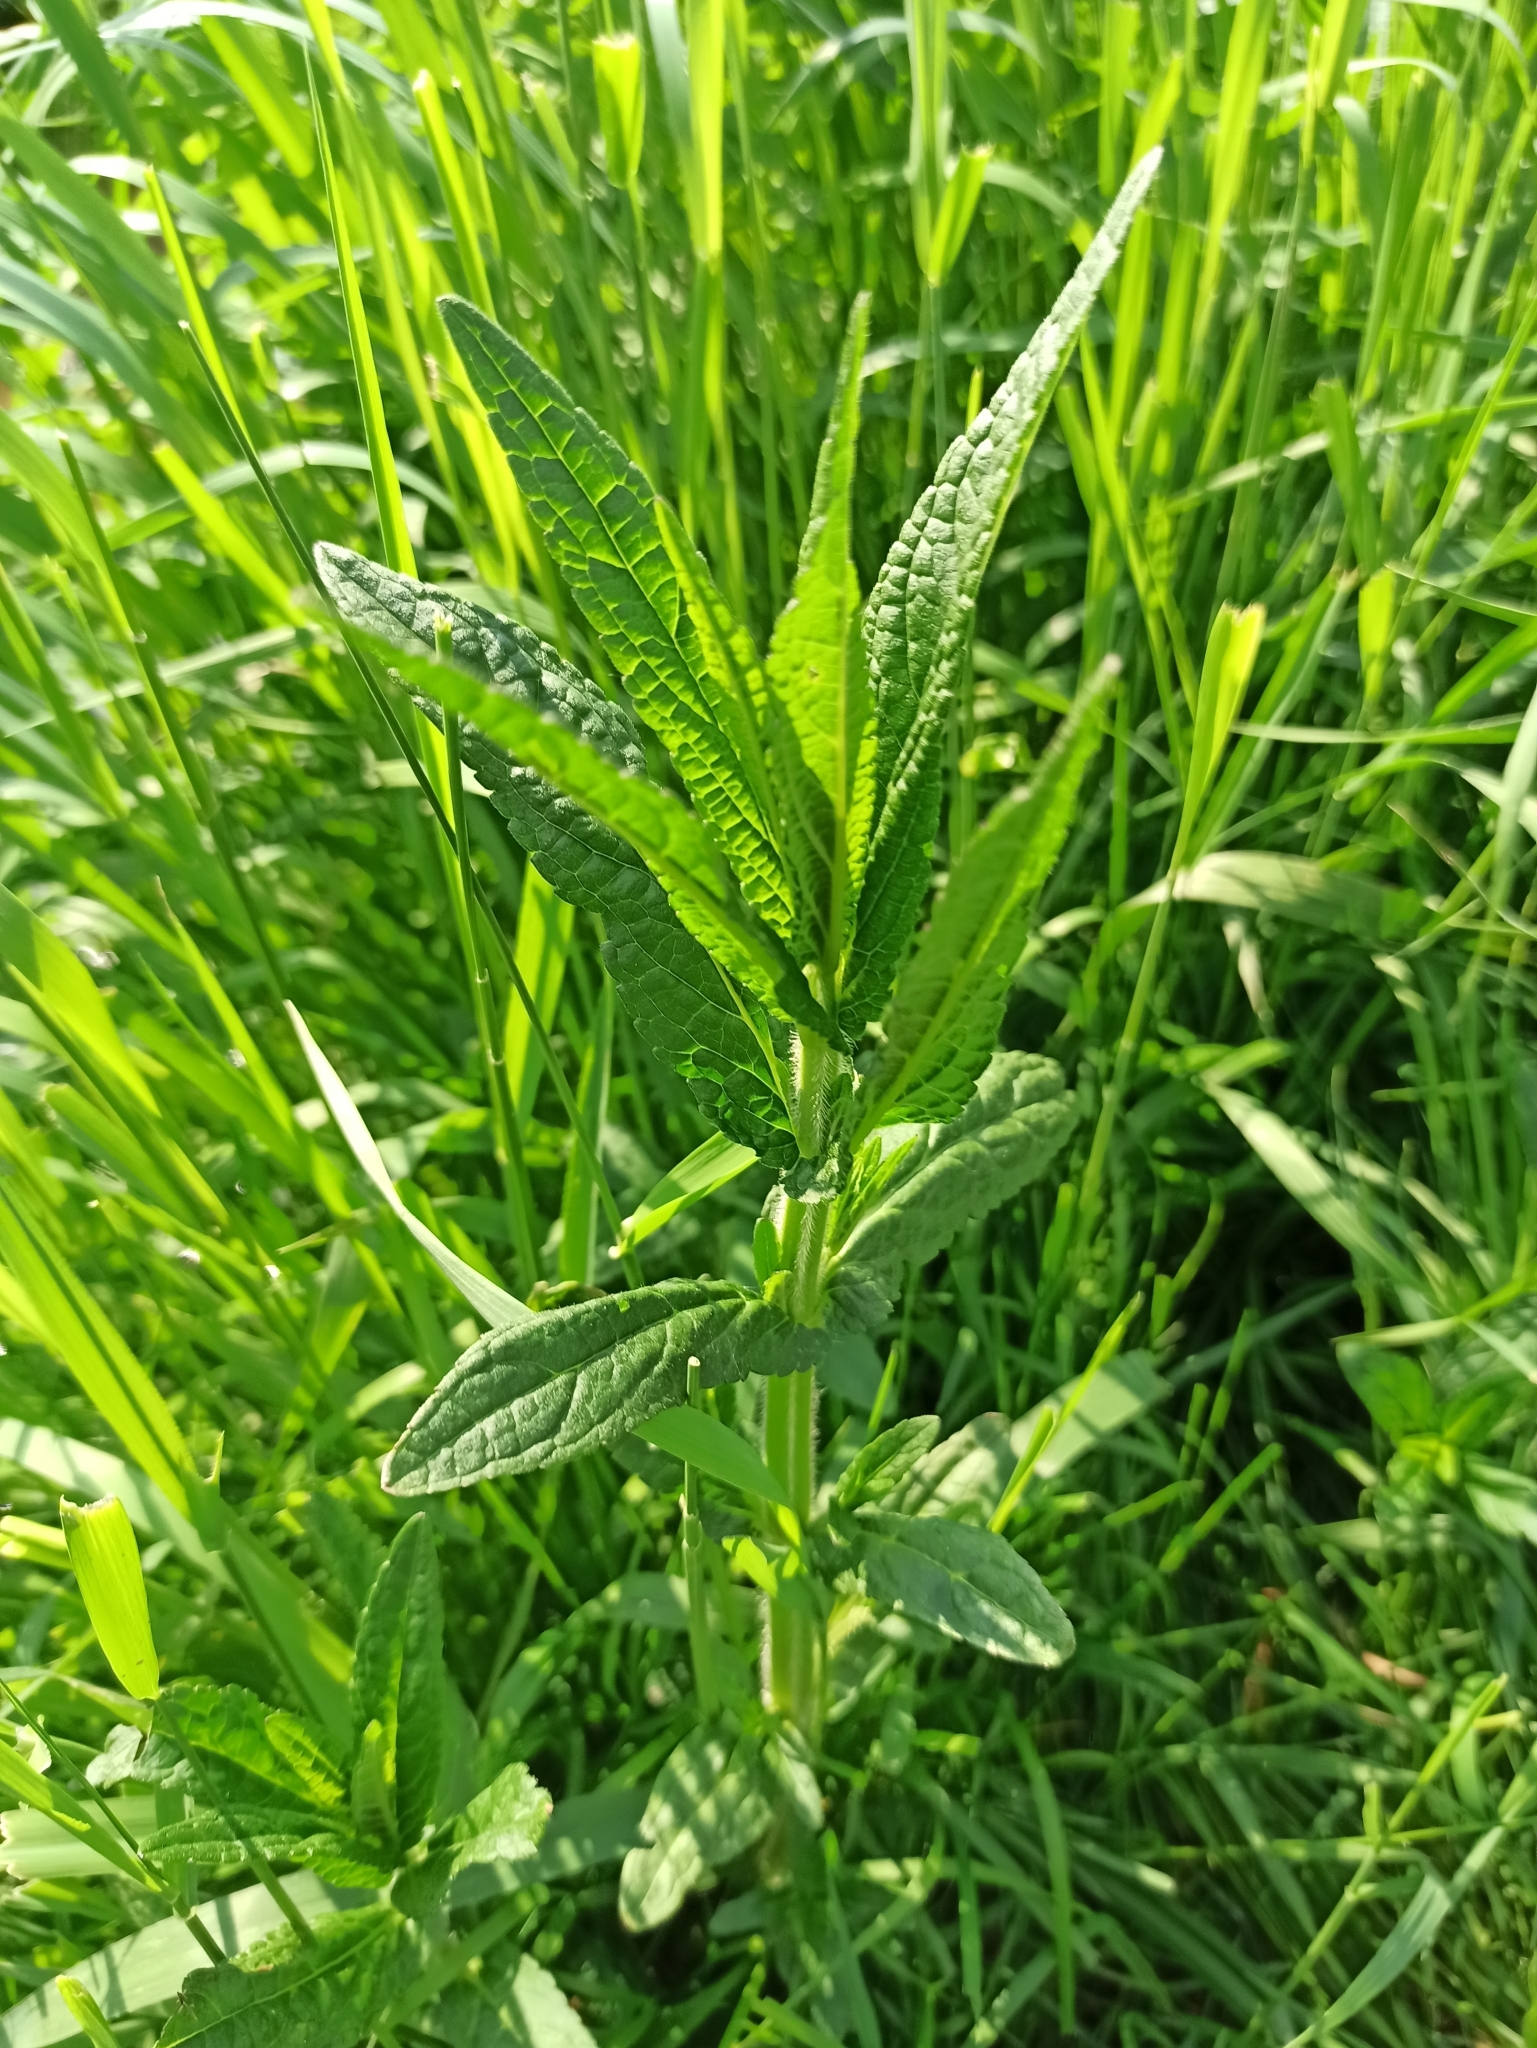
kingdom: Plantae
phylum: Tracheophyta
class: Magnoliopsida
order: Lamiales
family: Lamiaceae
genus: Stachys
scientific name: Stachys palustris
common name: Marsh woundwort
